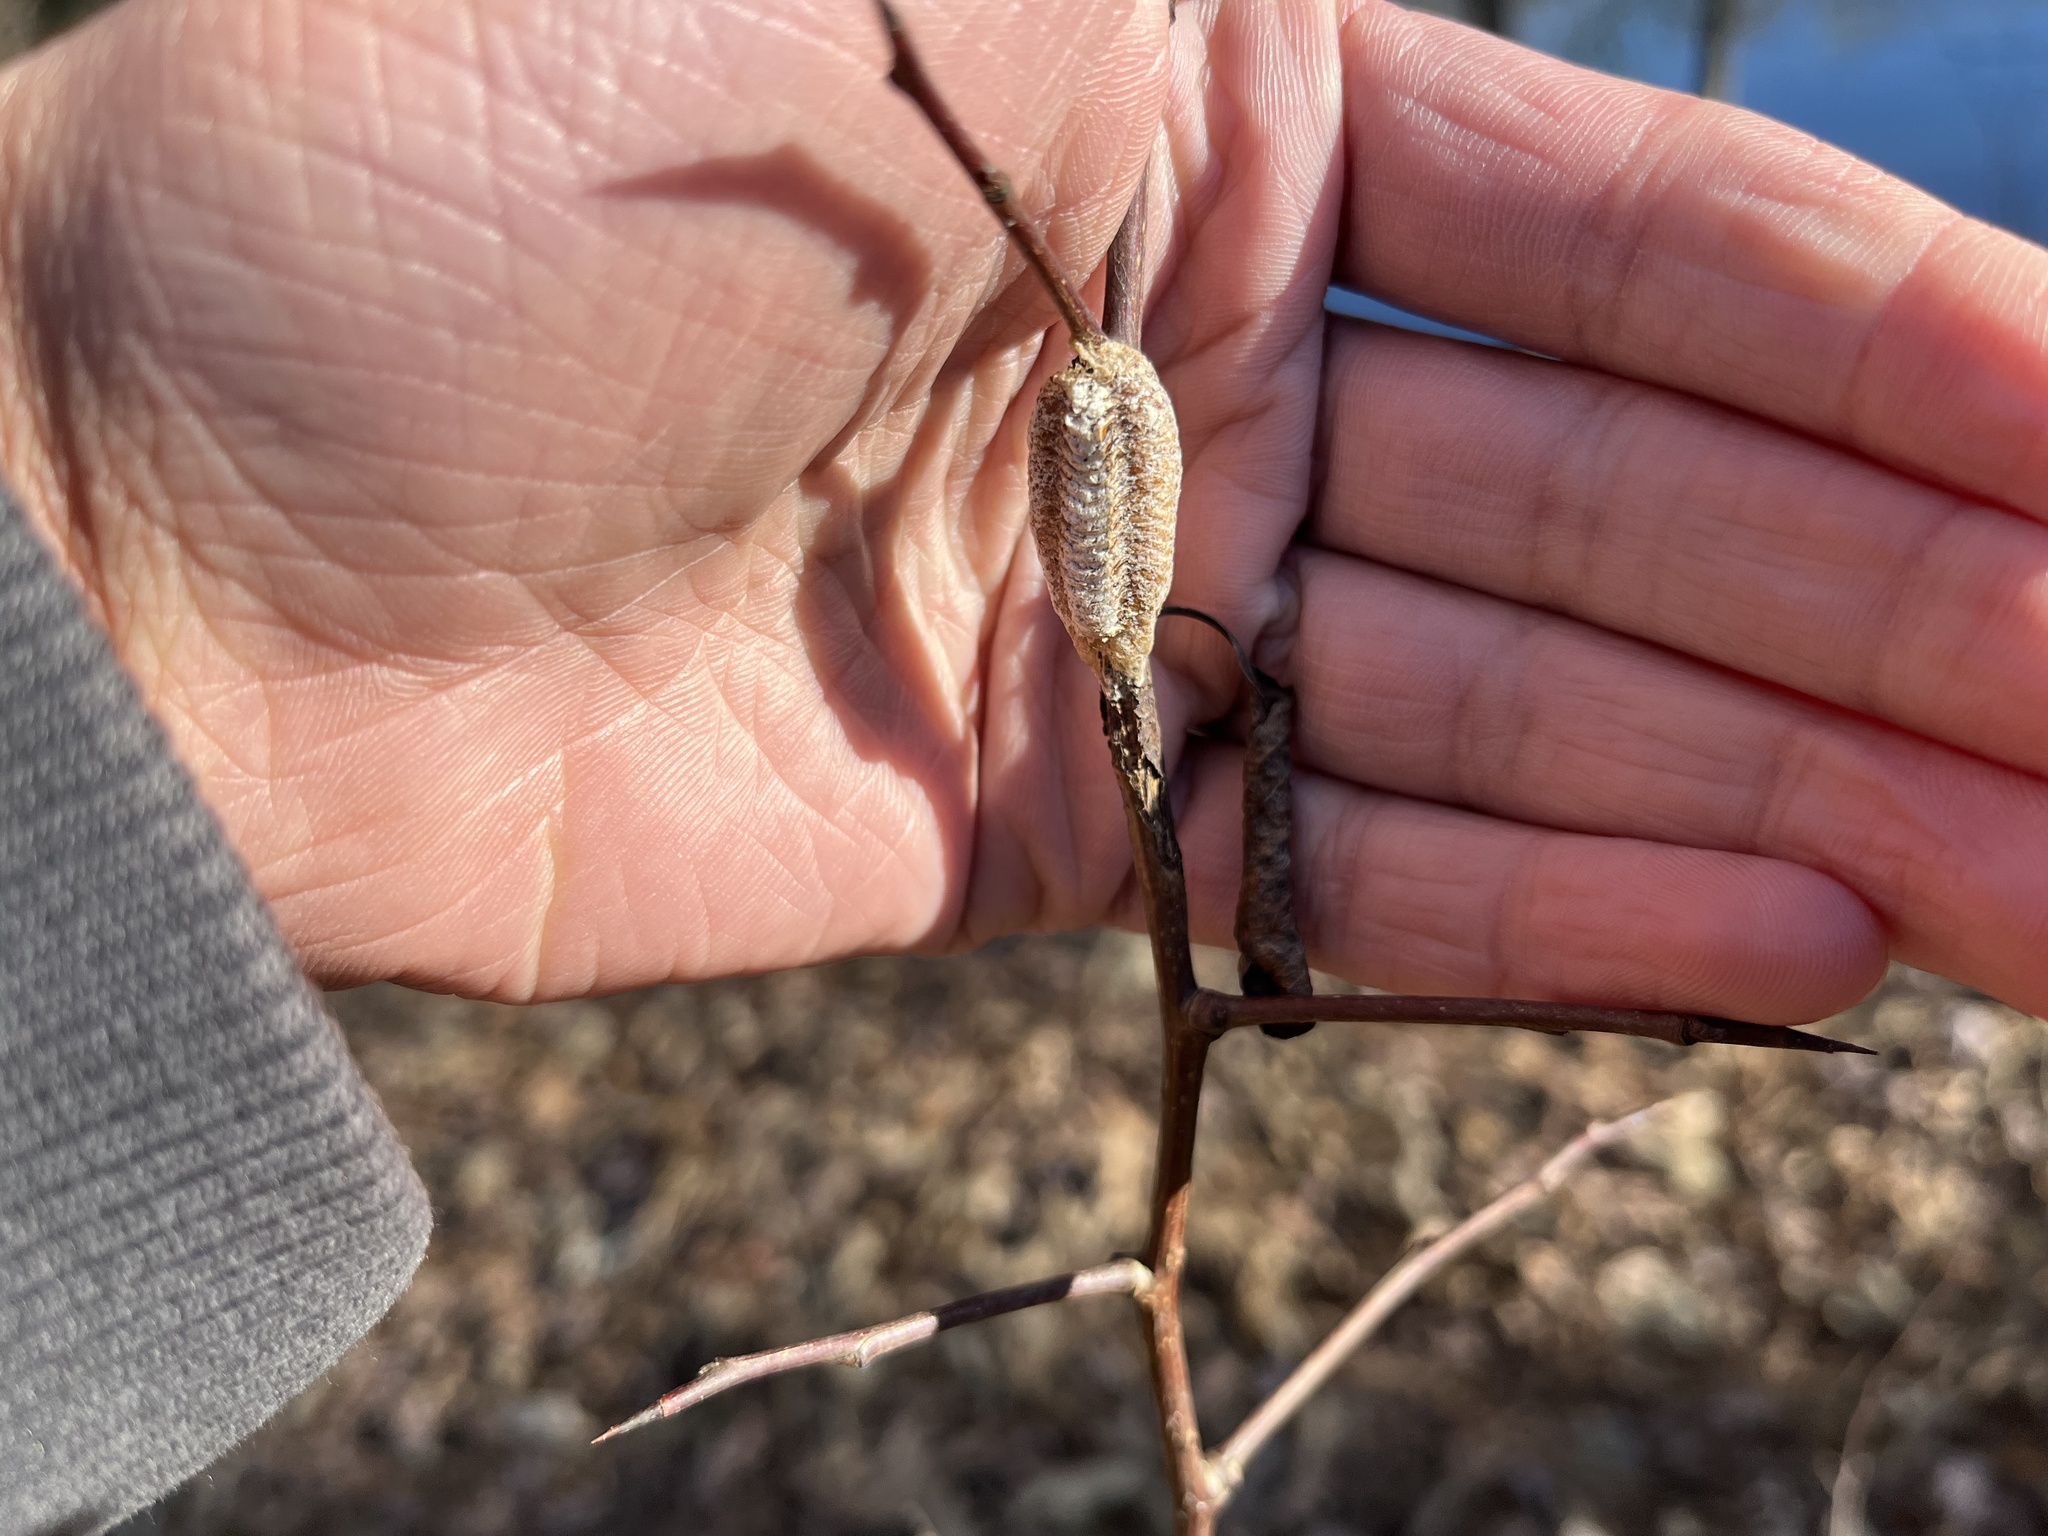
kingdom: Animalia
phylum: Arthropoda
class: Insecta
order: Mantodea
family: Mantidae
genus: Stagmomantis
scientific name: Stagmomantis carolina
